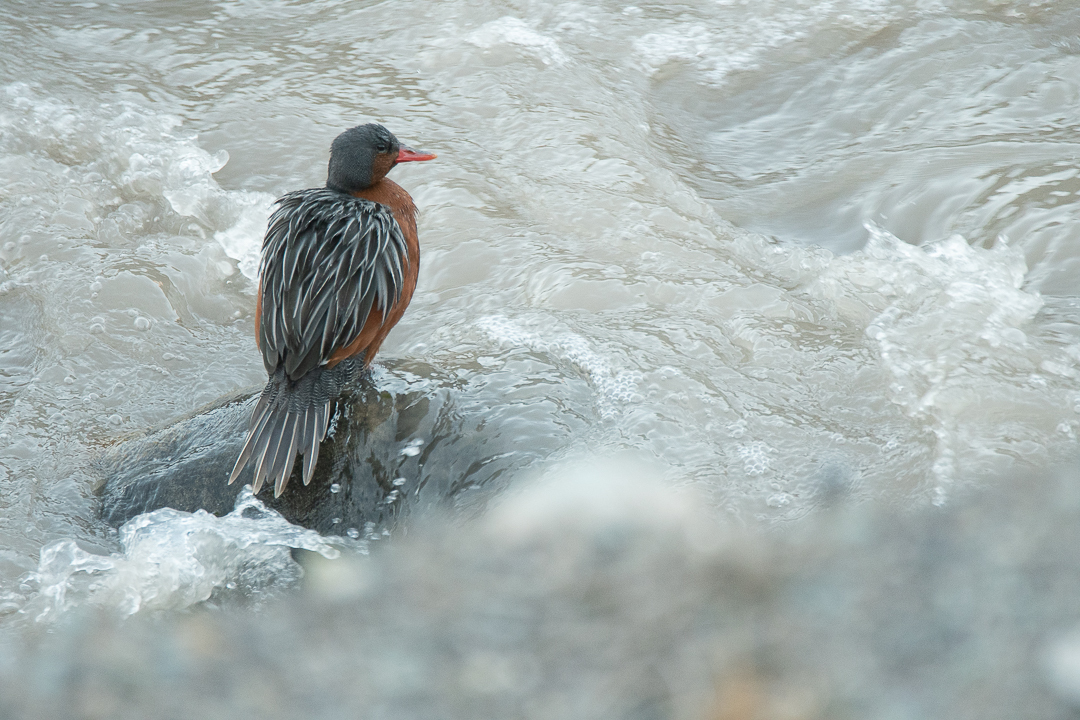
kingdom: Animalia
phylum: Chordata
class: Aves
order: Anseriformes
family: Anatidae
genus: Merganetta
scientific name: Merganetta armata
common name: Torrent duck
